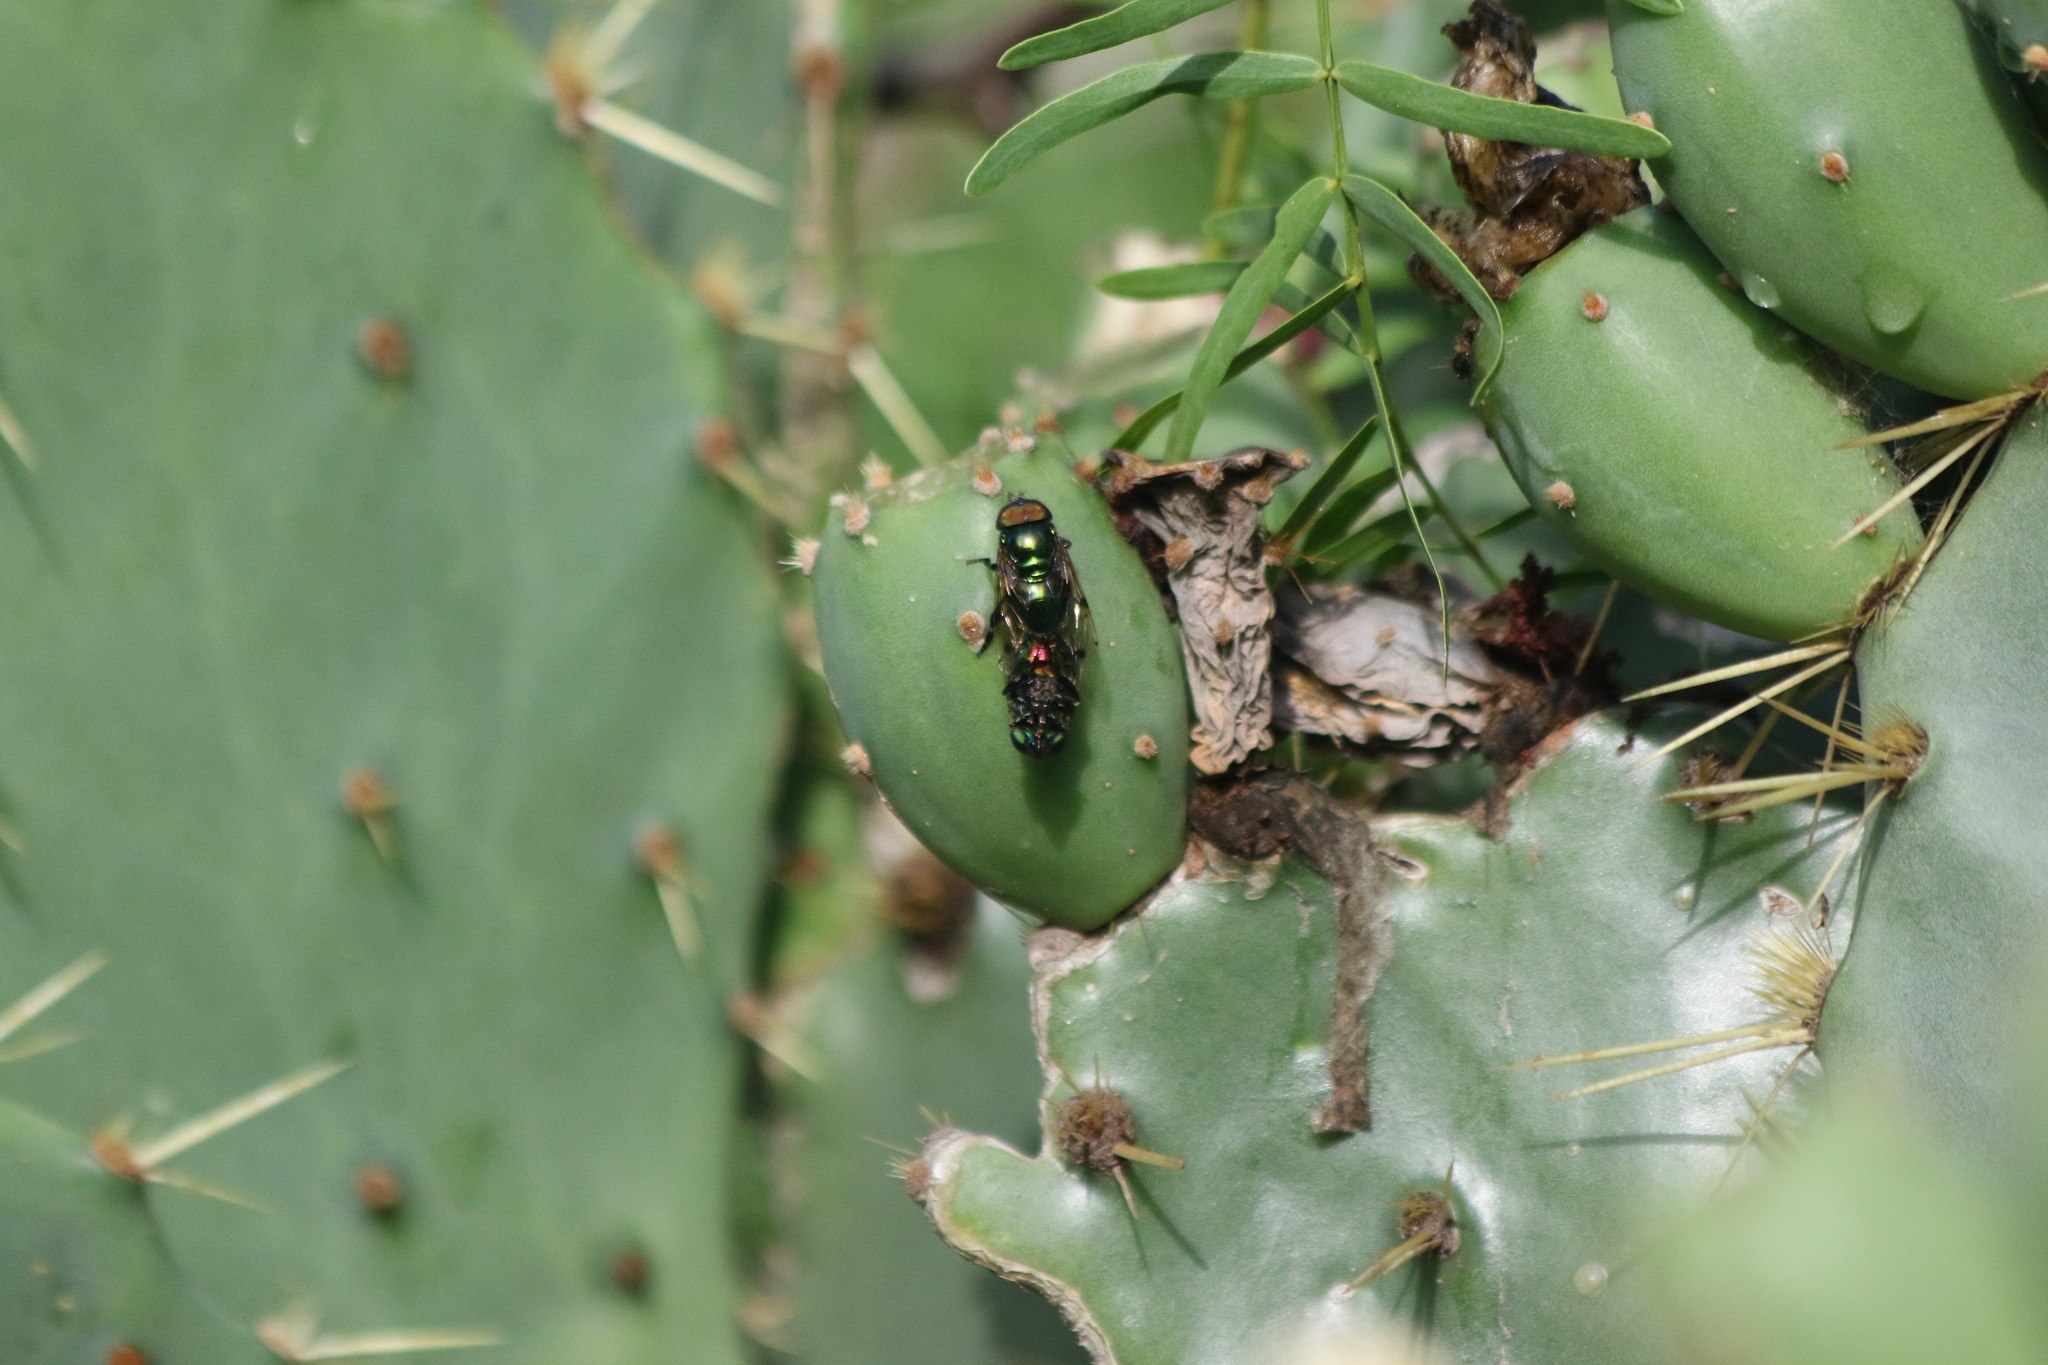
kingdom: Animalia
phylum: Arthropoda
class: Insecta
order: Diptera
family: Syrphidae
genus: Ornidia
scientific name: Ornidia obesa
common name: Syrphid fly
